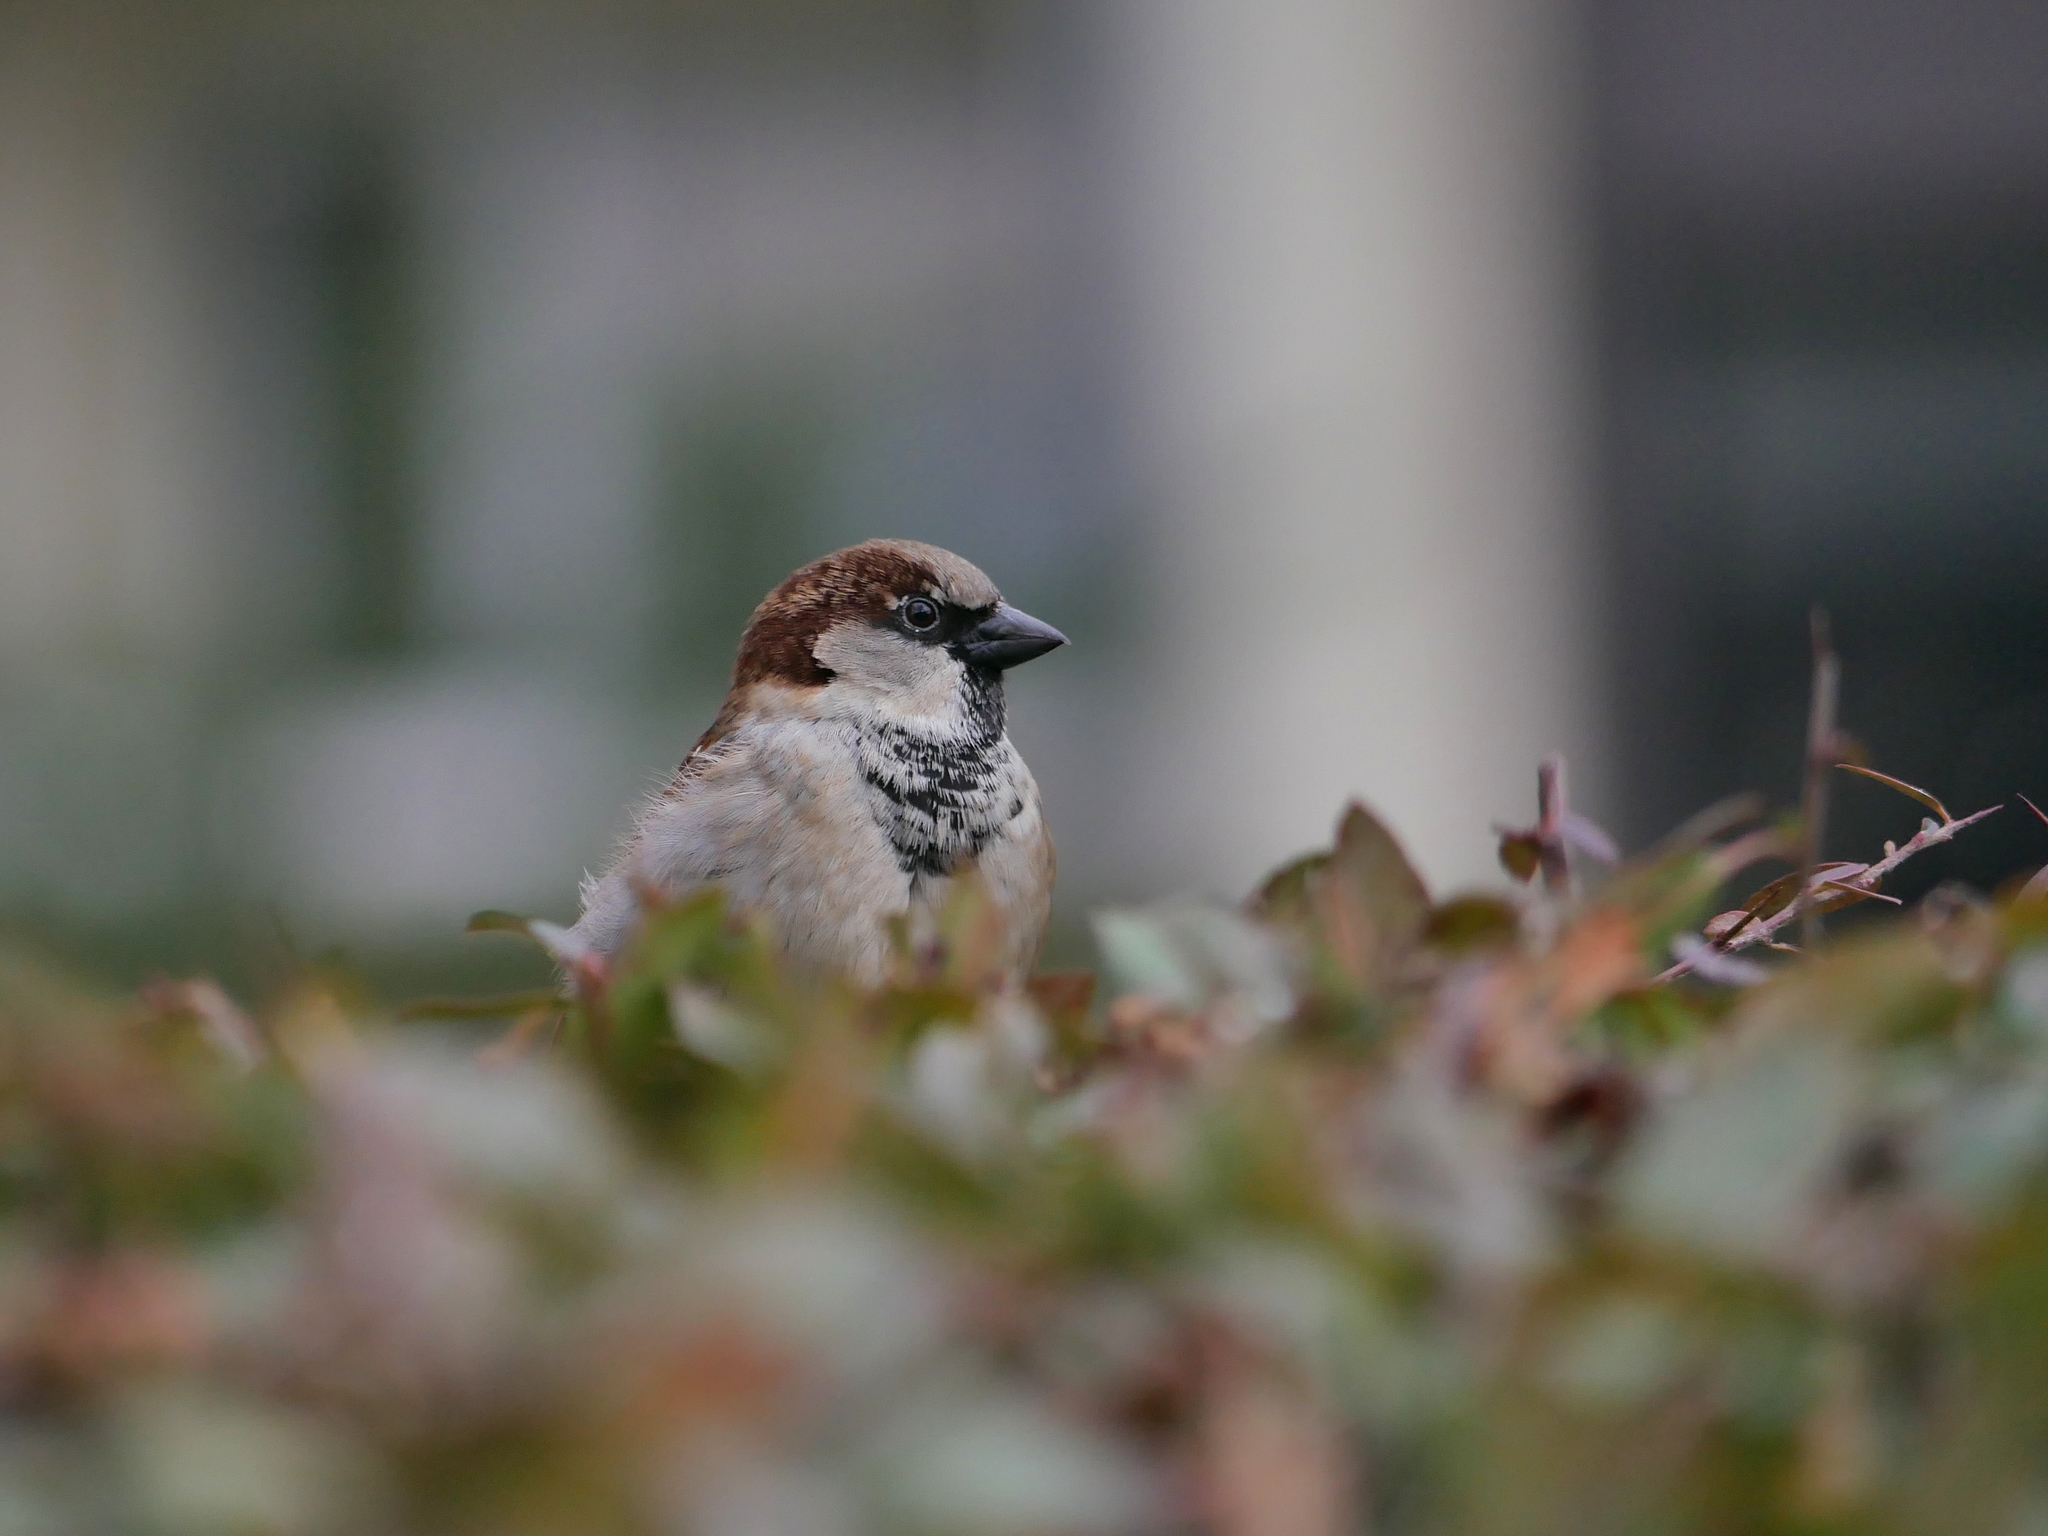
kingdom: Animalia
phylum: Chordata
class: Aves
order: Passeriformes
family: Passeridae
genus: Passer
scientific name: Passer domesticus
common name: House sparrow
